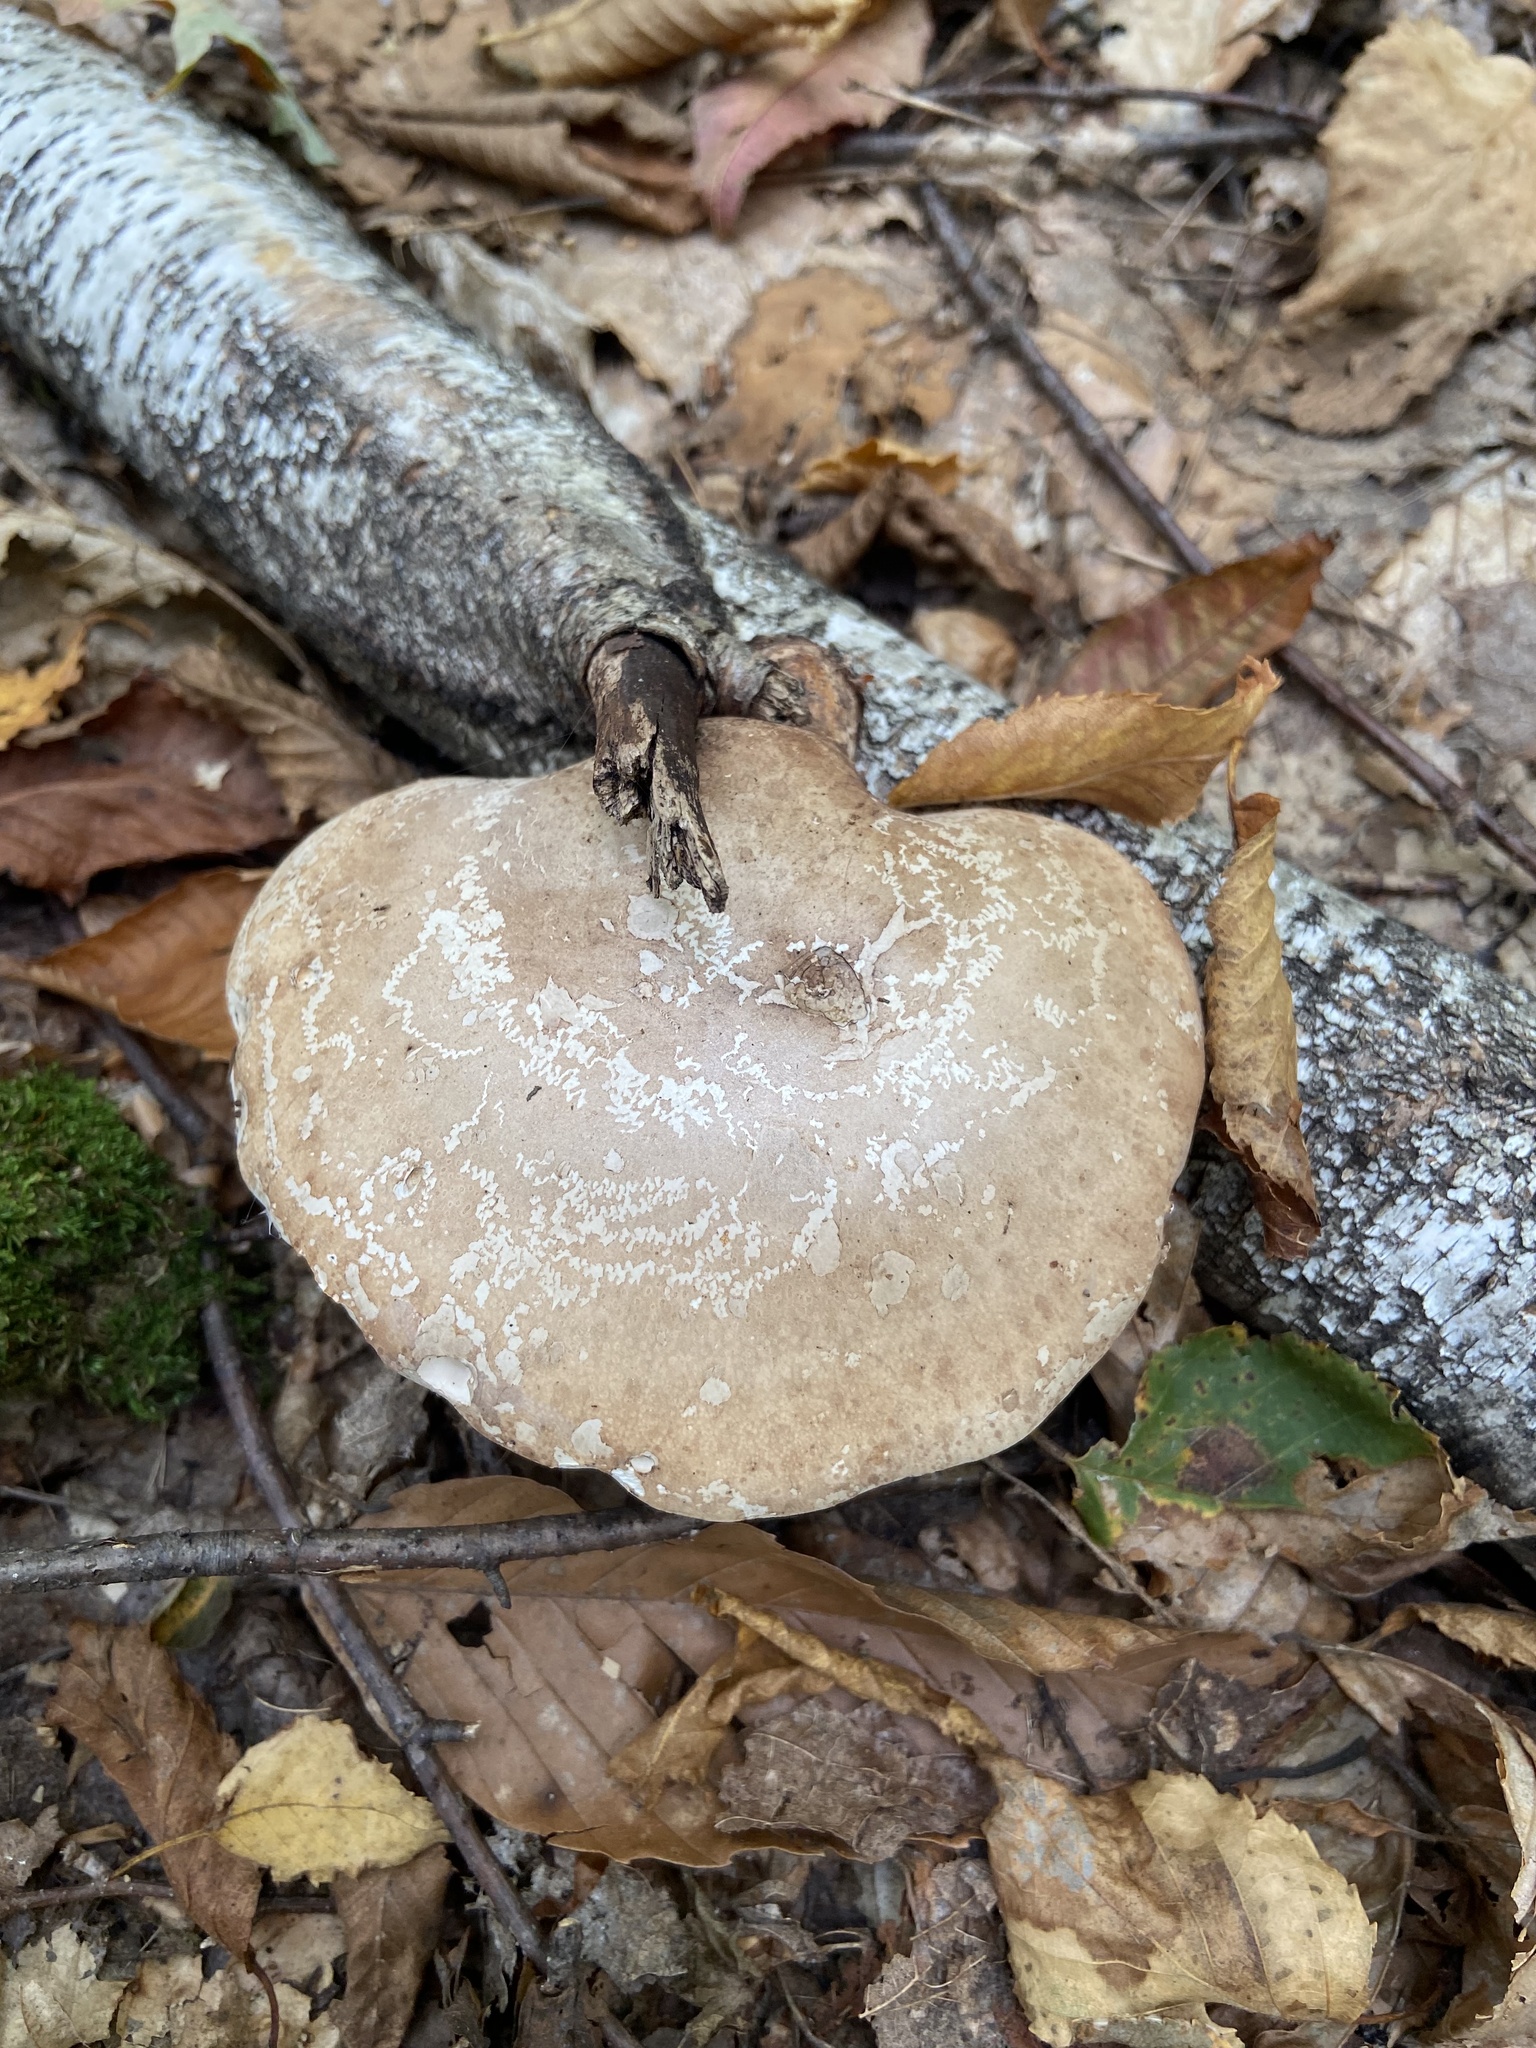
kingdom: Fungi
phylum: Basidiomycota
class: Agaricomycetes
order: Polyporales
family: Fomitopsidaceae
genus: Fomitopsis
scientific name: Fomitopsis betulina
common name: Birch polypore
